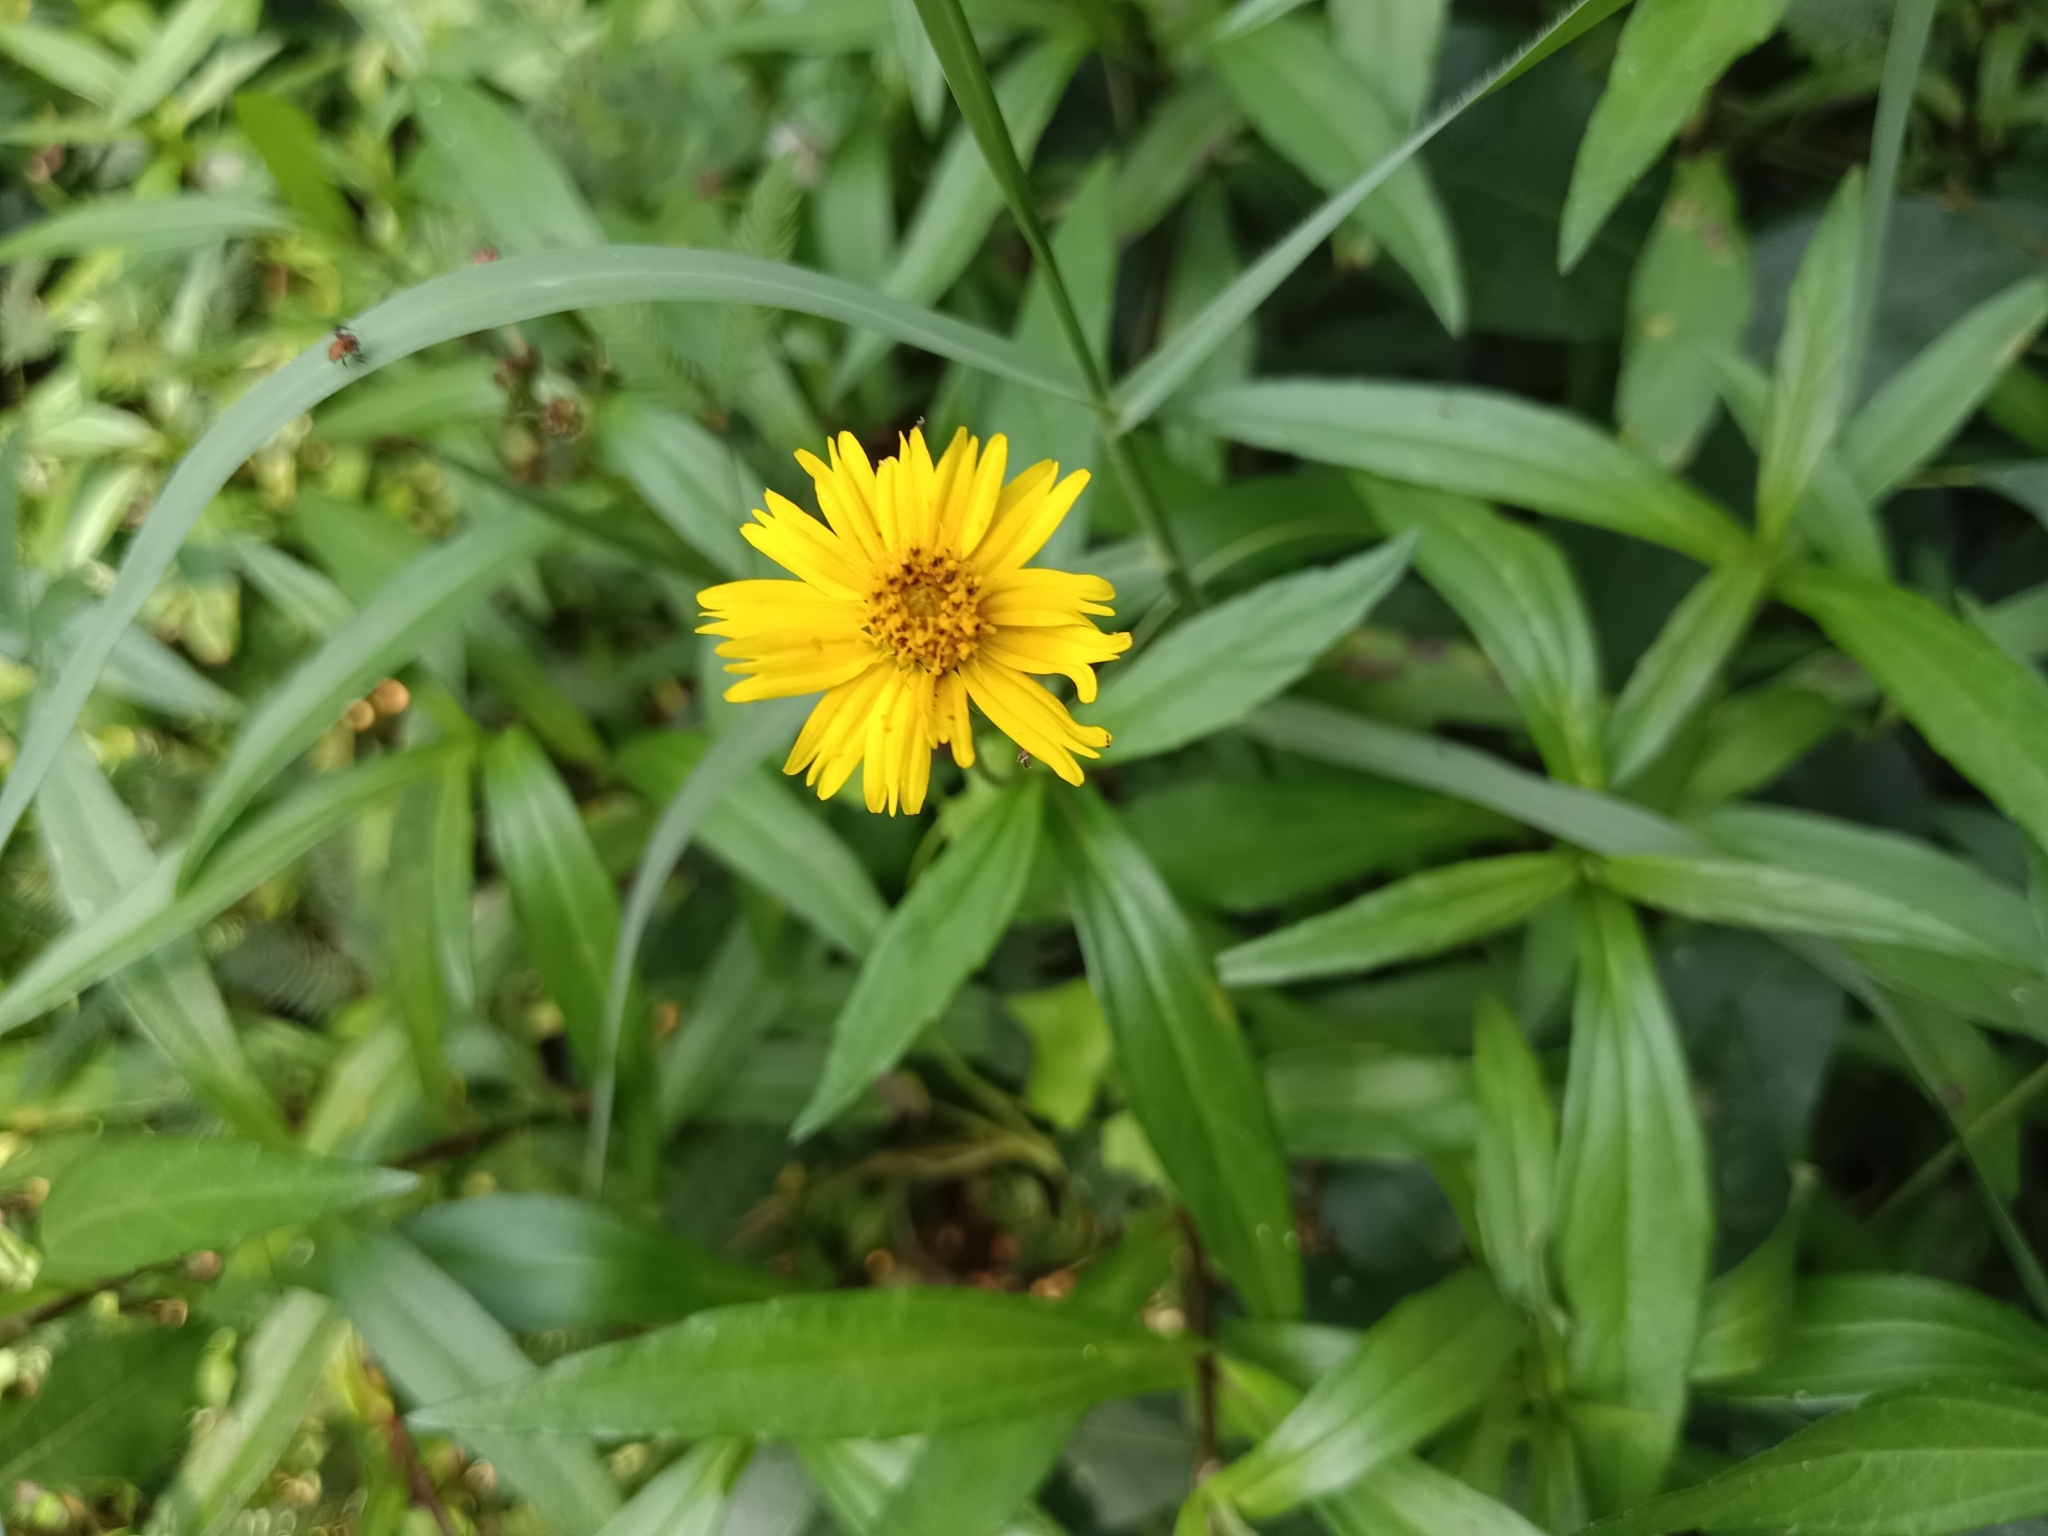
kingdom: Plantae
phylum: Tracheophyta
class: Magnoliopsida
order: Asterales
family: Asteraceae
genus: Sphagneticola
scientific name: Sphagneticola trilobata
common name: Bay biscayne creeping-oxeye
